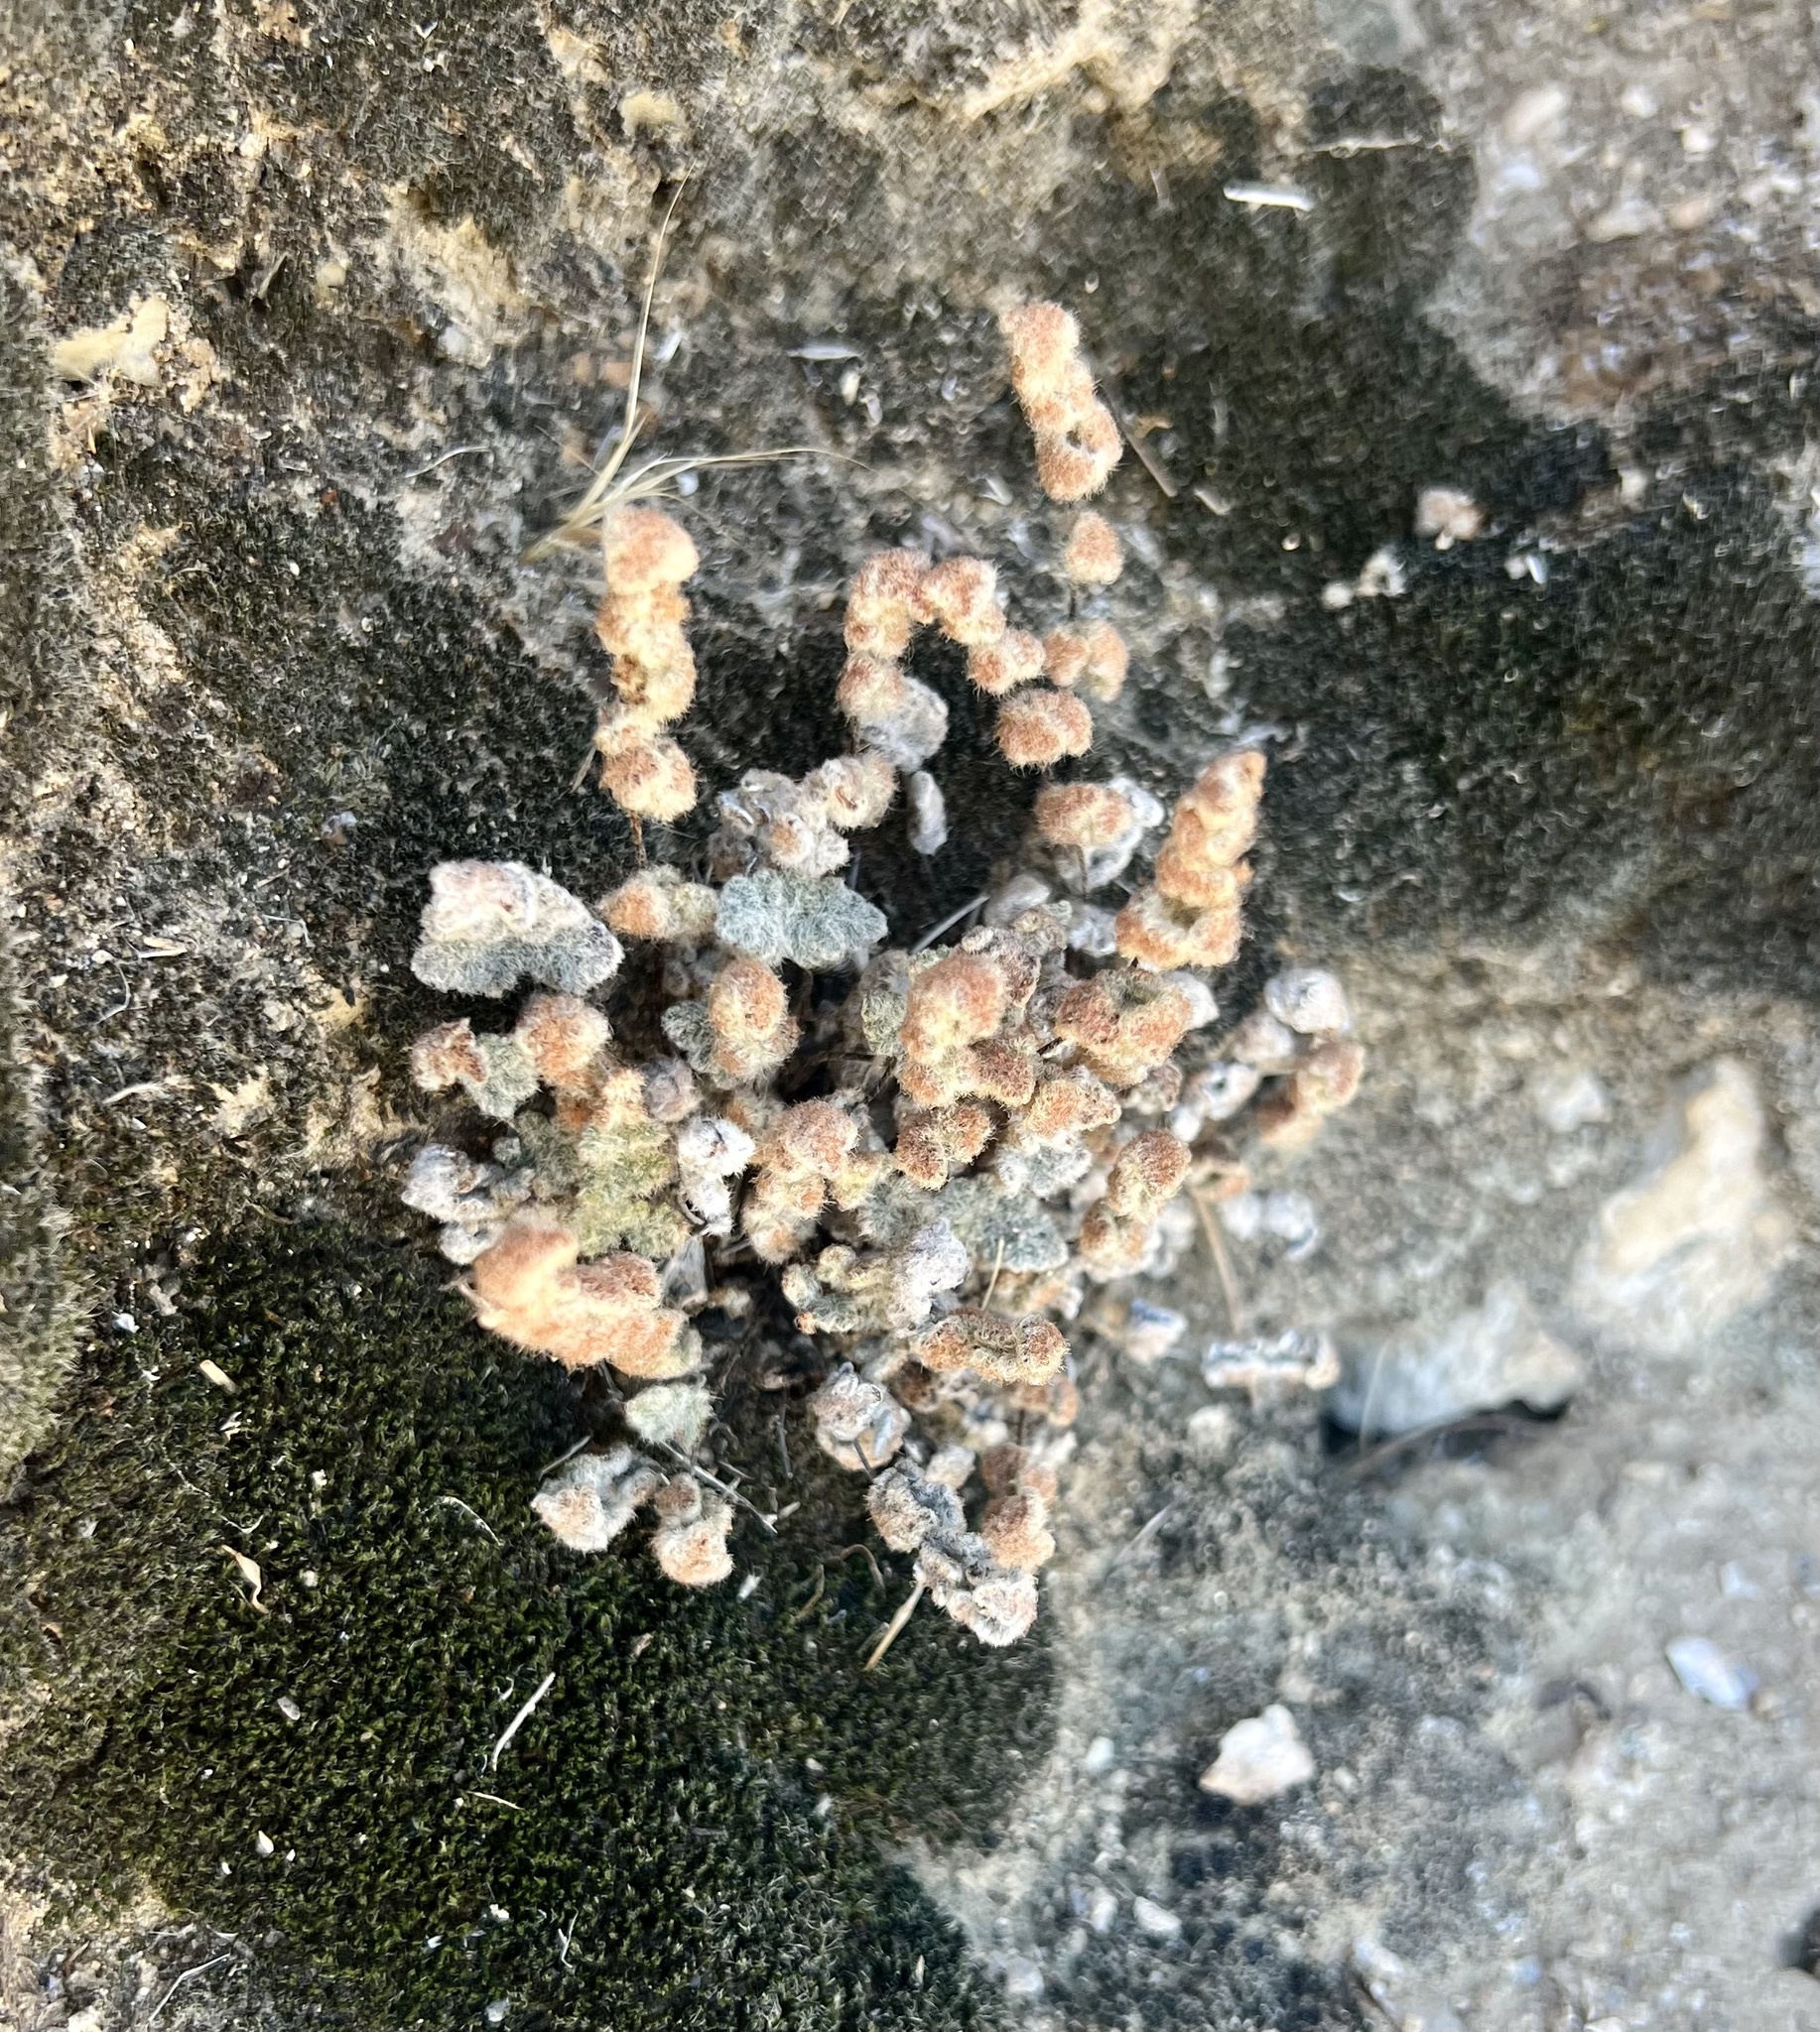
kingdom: Plantae
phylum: Tracheophyta
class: Polypodiopsida
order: Polypodiales
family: Pteridaceae
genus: Myriopteris
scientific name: Myriopteris parryi
